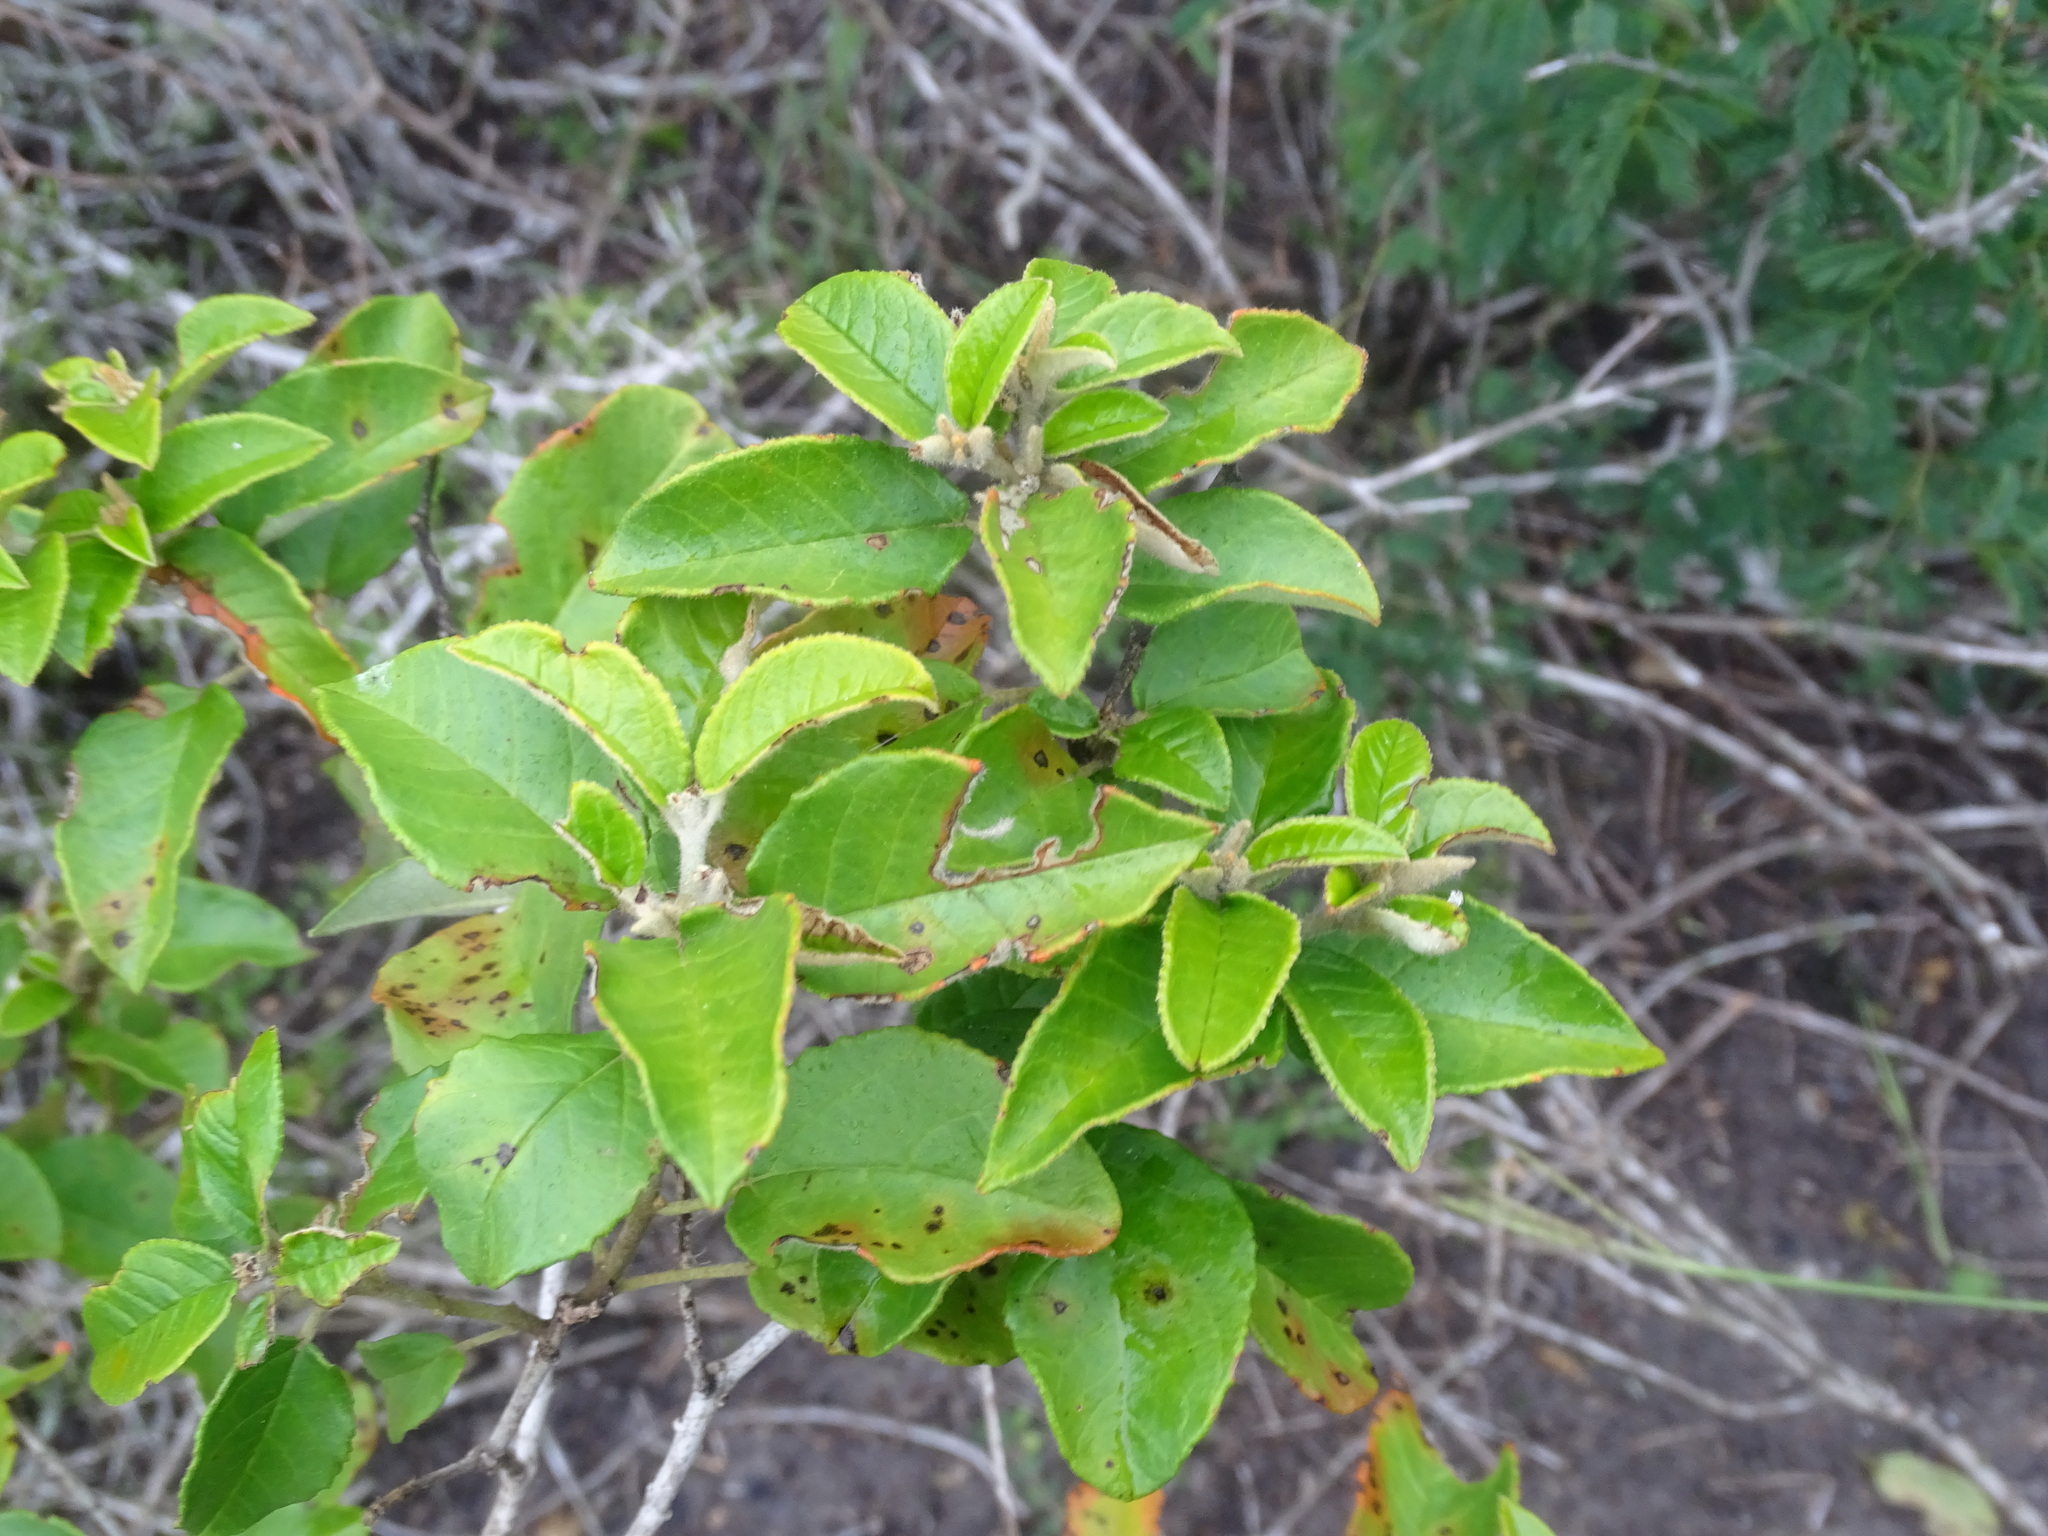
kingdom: Plantae
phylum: Tracheophyta
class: Magnoliopsida
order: Malpighiales
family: Euphorbiaceae
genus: Croton
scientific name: Croton cortesianus
